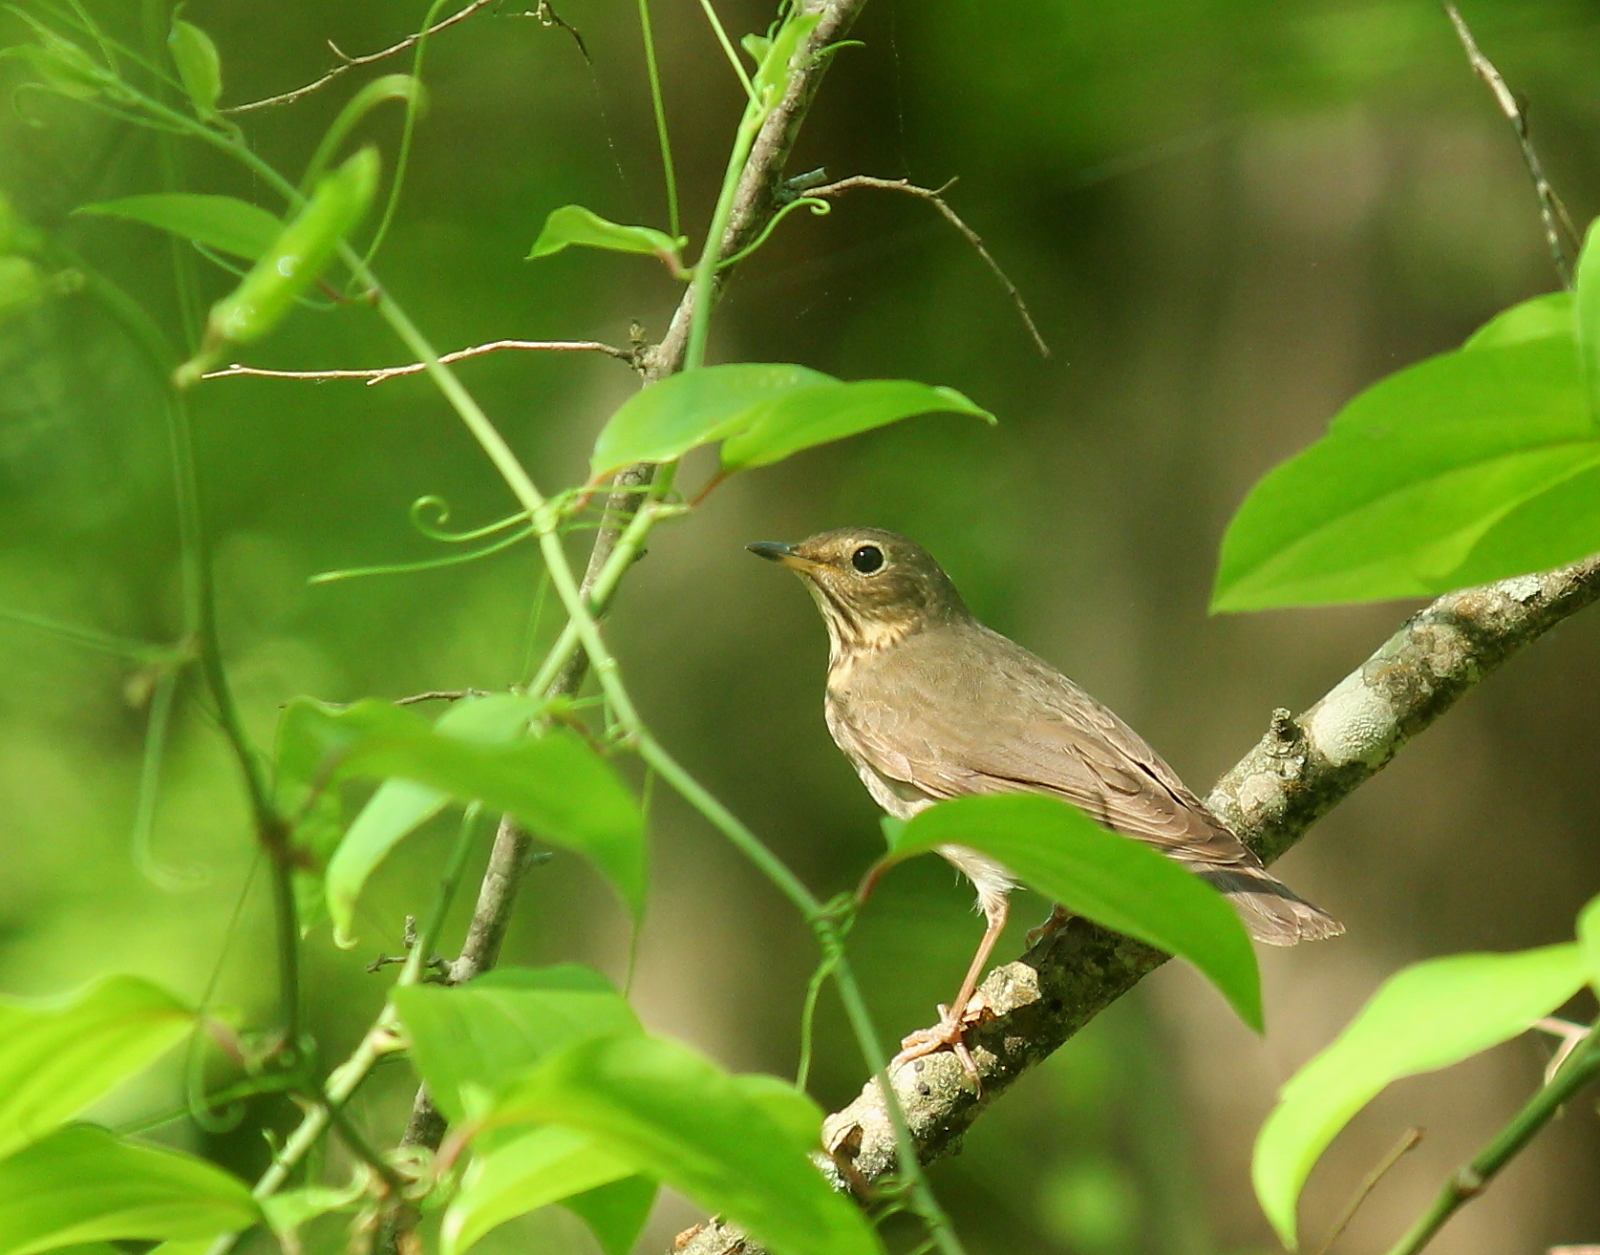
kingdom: Animalia
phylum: Chordata
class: Aves
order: Passeriformes
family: Turdidae
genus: Catharus
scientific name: Catharus ustulatus
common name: Swainson's thrush
